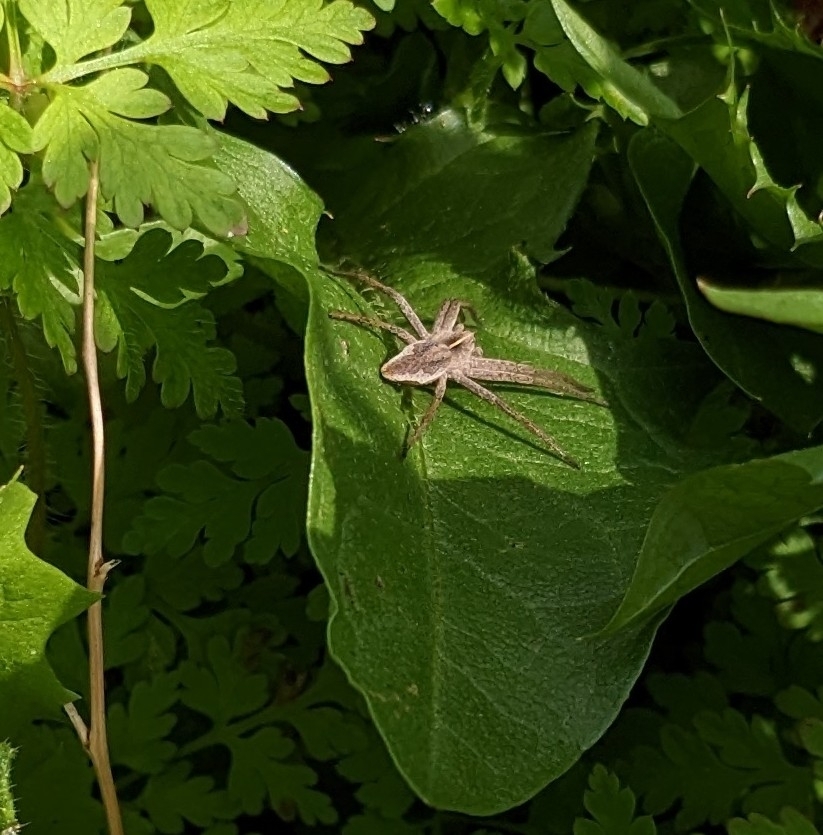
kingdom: Animalia
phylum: Arthropoda
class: Arachnida
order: Araneae
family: Pisauridae
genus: Pisaura
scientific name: Pisaura mirabilis
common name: Tent spider
